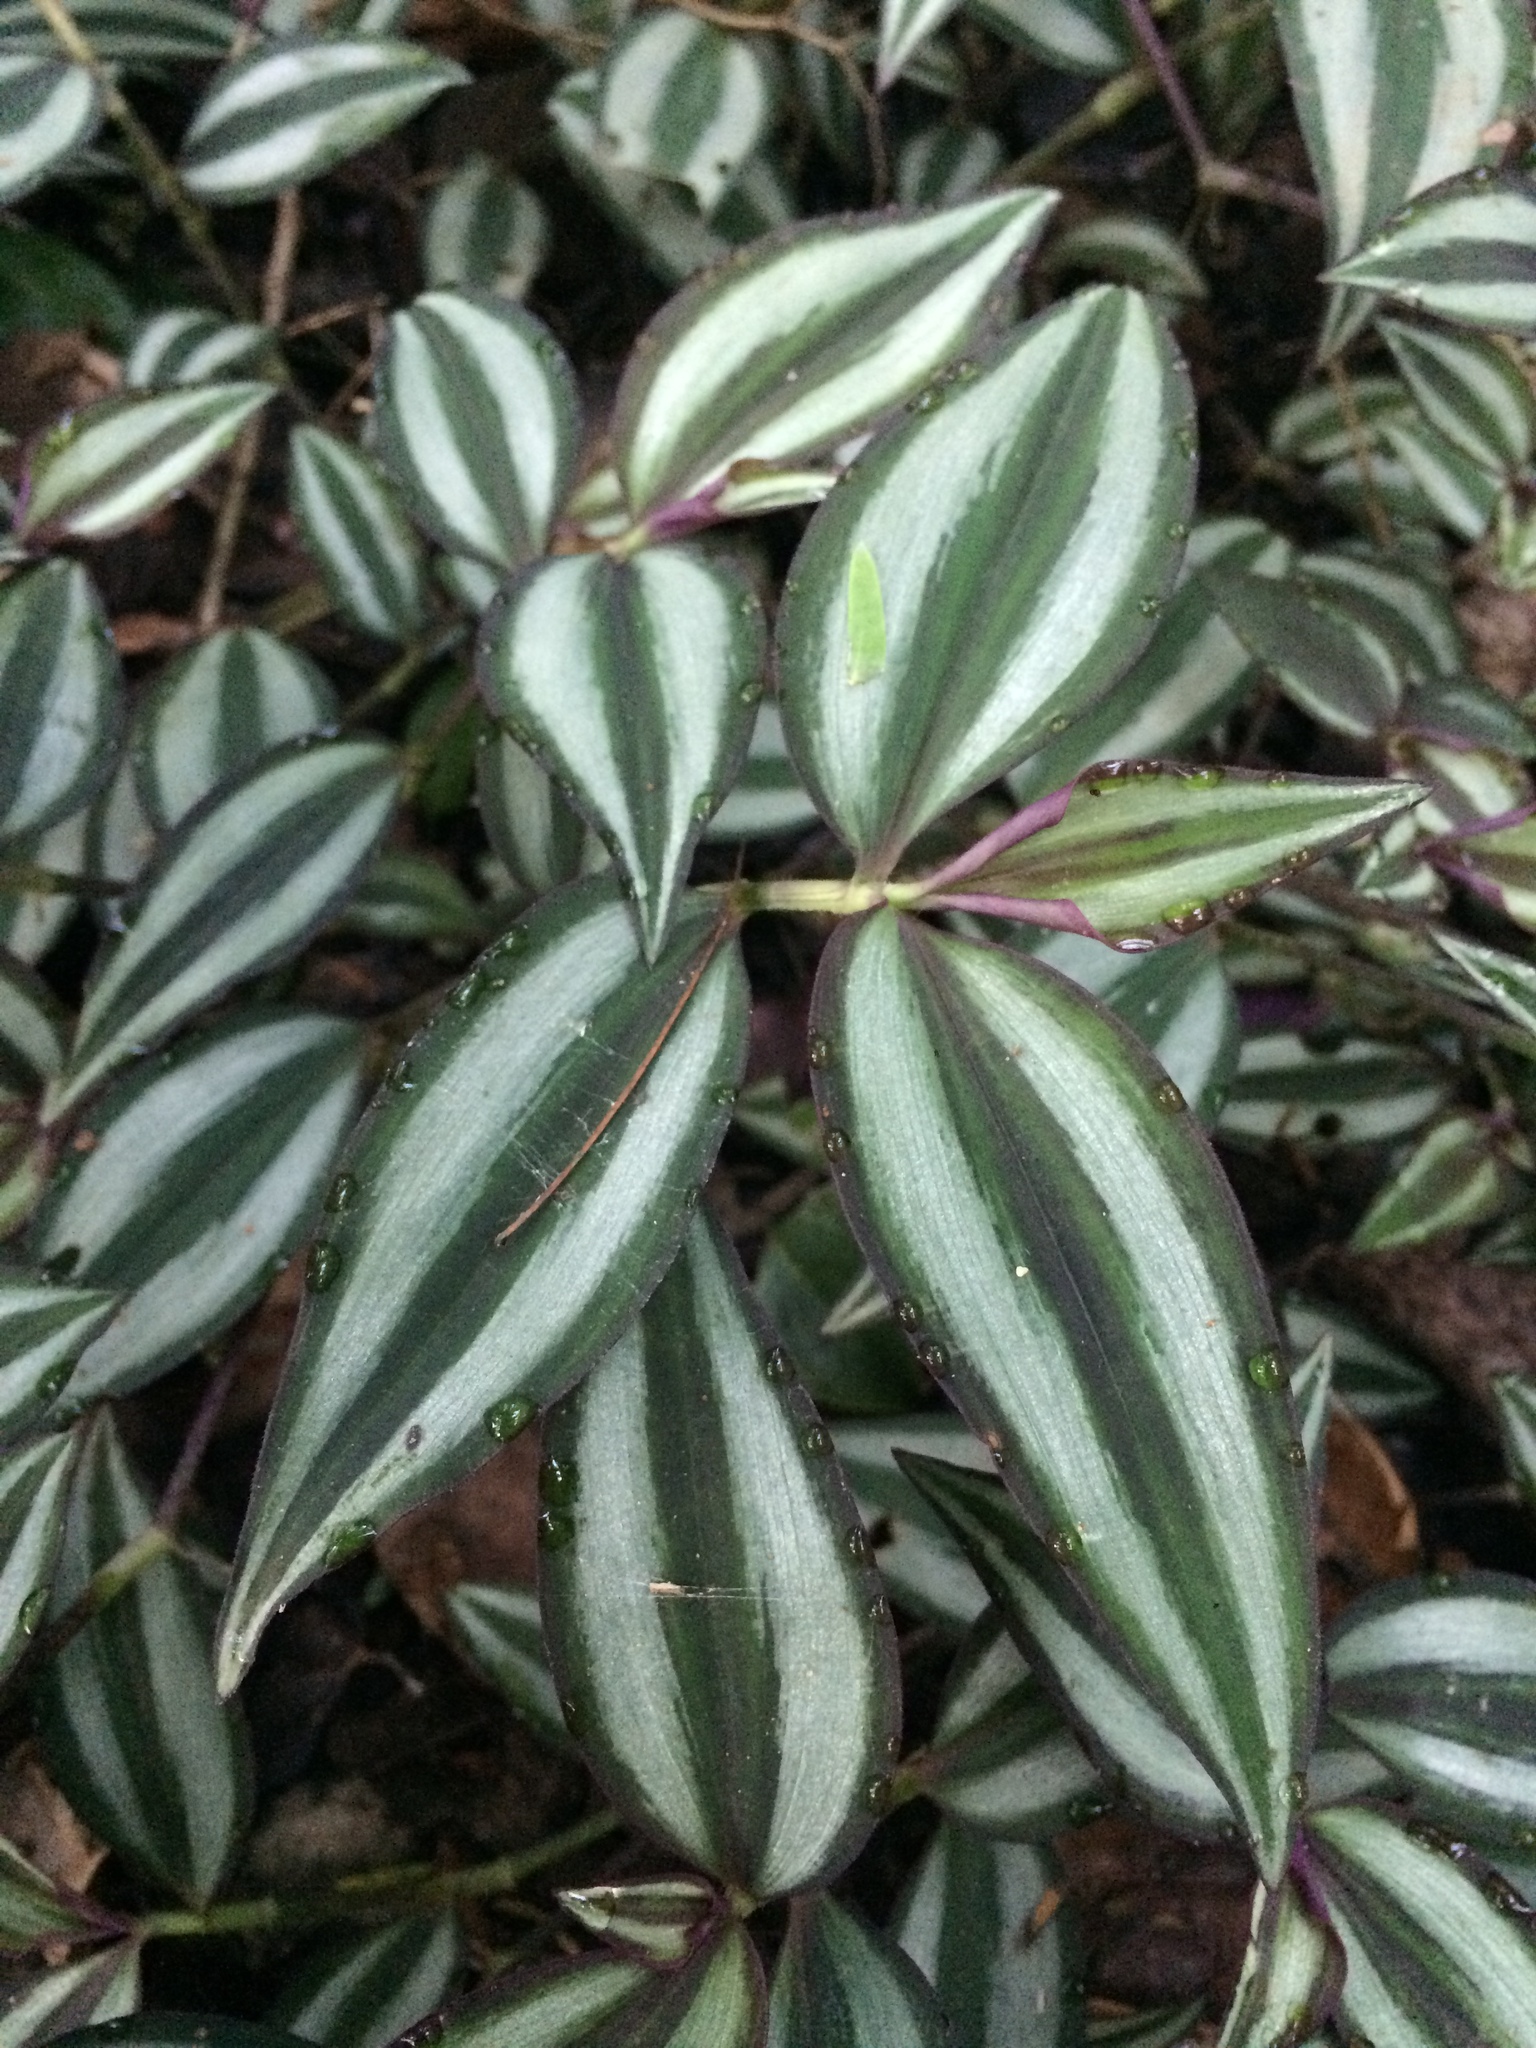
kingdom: Plantae
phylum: Tracheophyta
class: Liliopsida
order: Commelinales
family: Commelinaceae
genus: Tradescantia
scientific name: Tradescantia zebrina
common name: Inchplant
